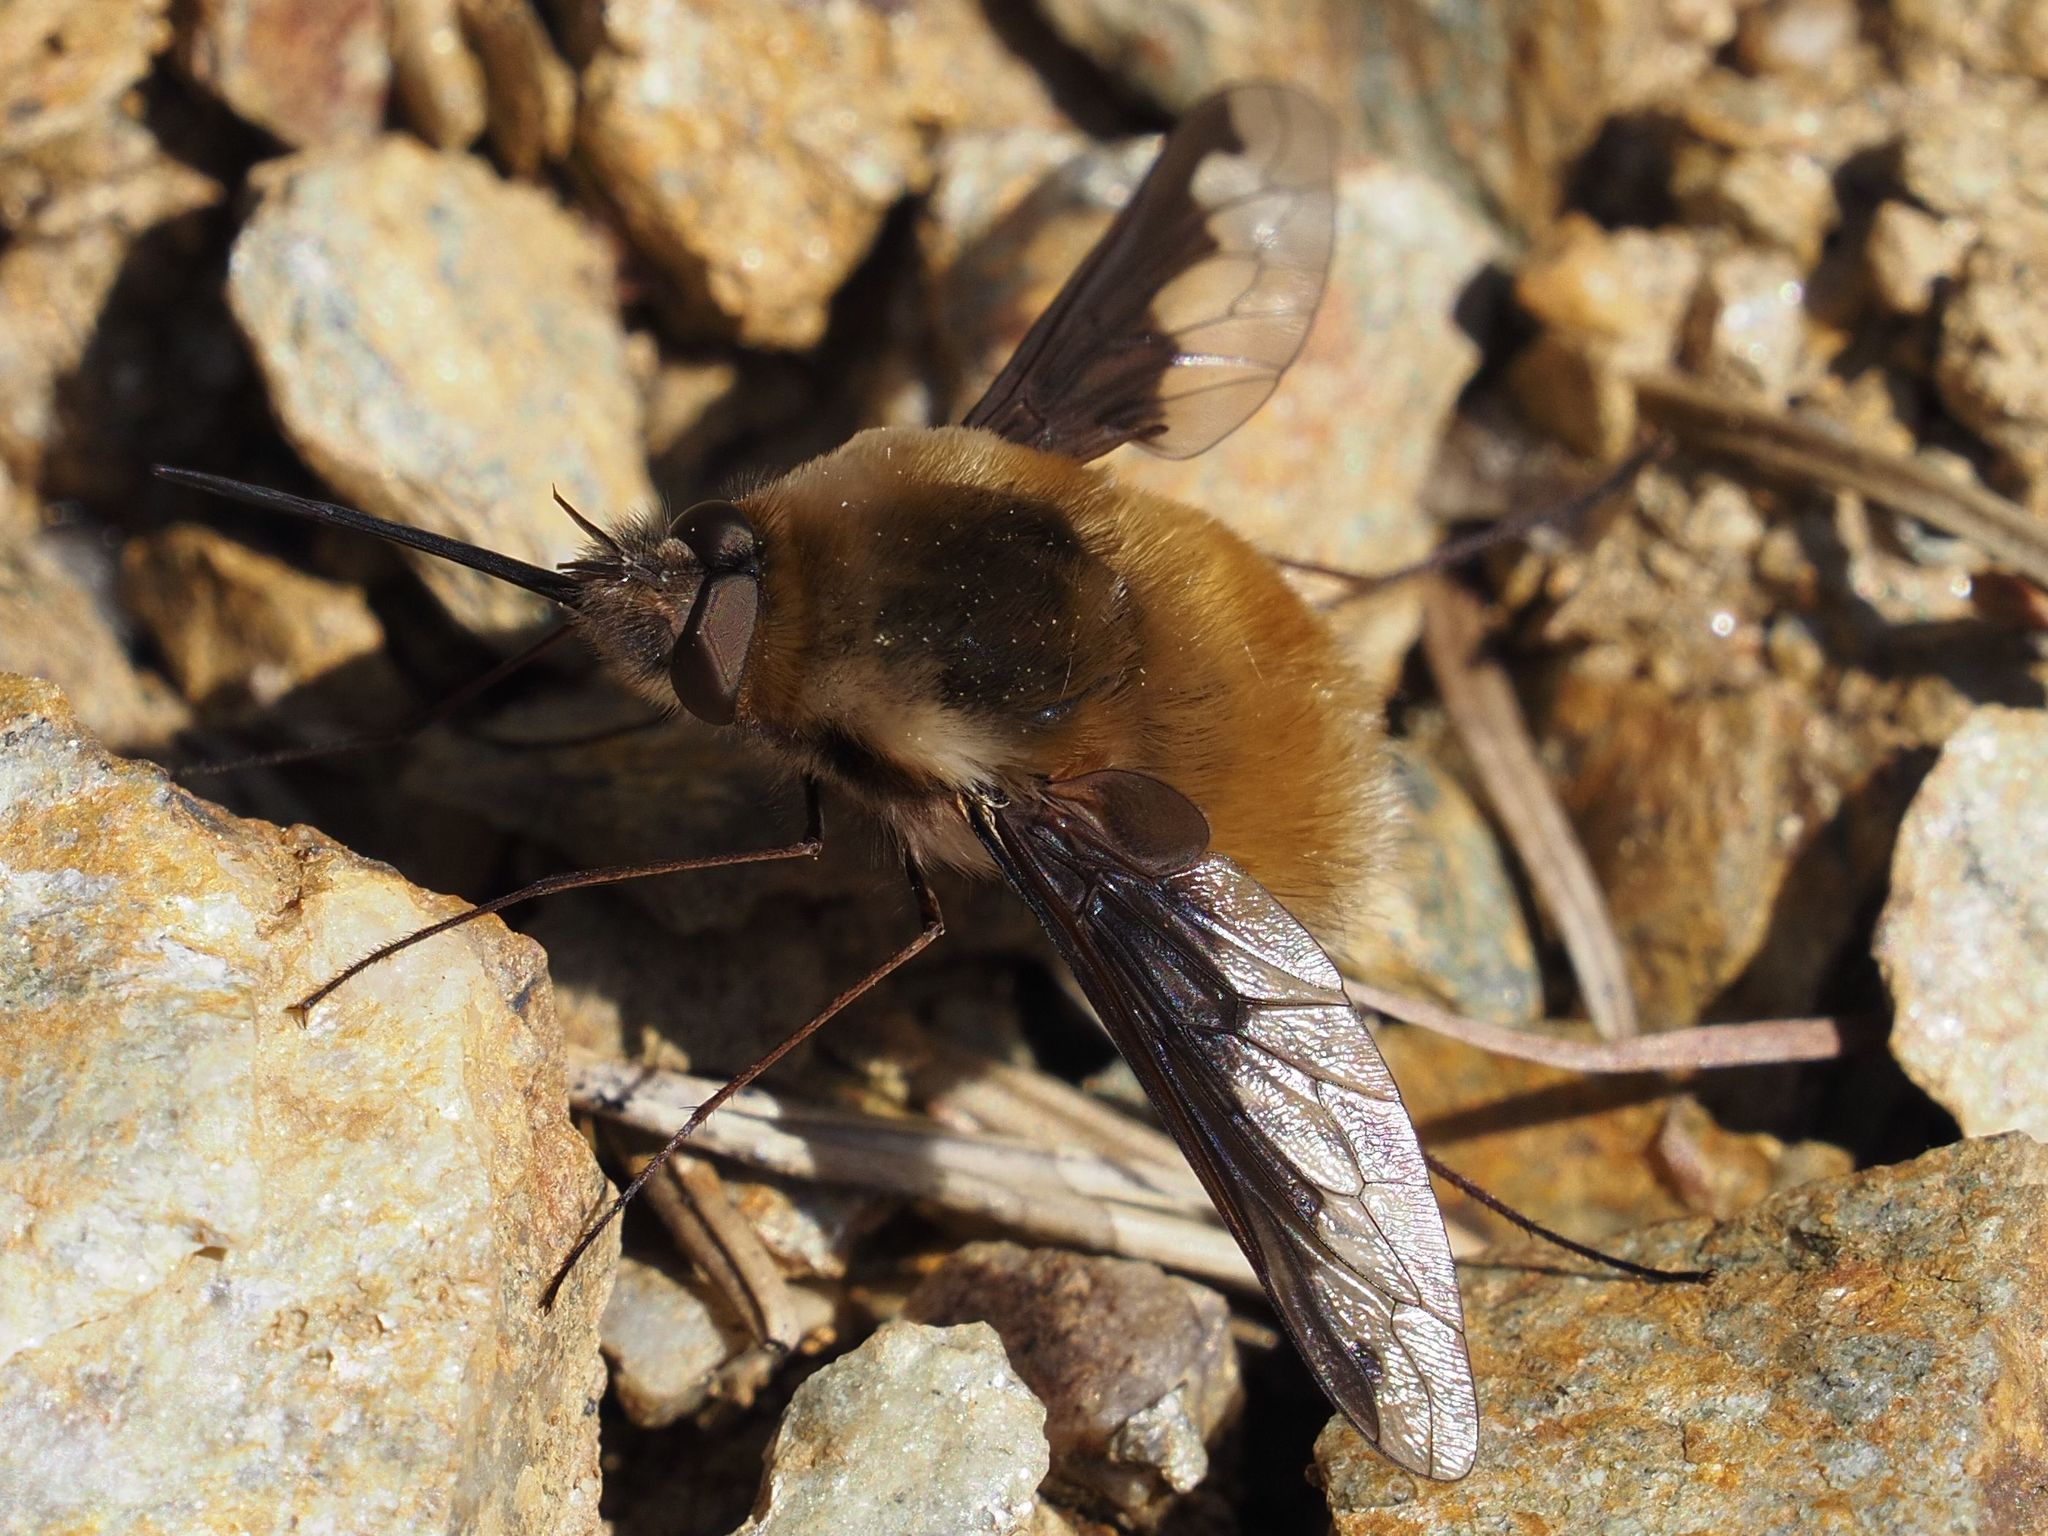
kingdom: Animalia
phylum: Arthropoda
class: Insecta
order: Diptera
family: Bombyliidae
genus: Bombylius
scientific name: Bombylius major
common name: Bee fly
